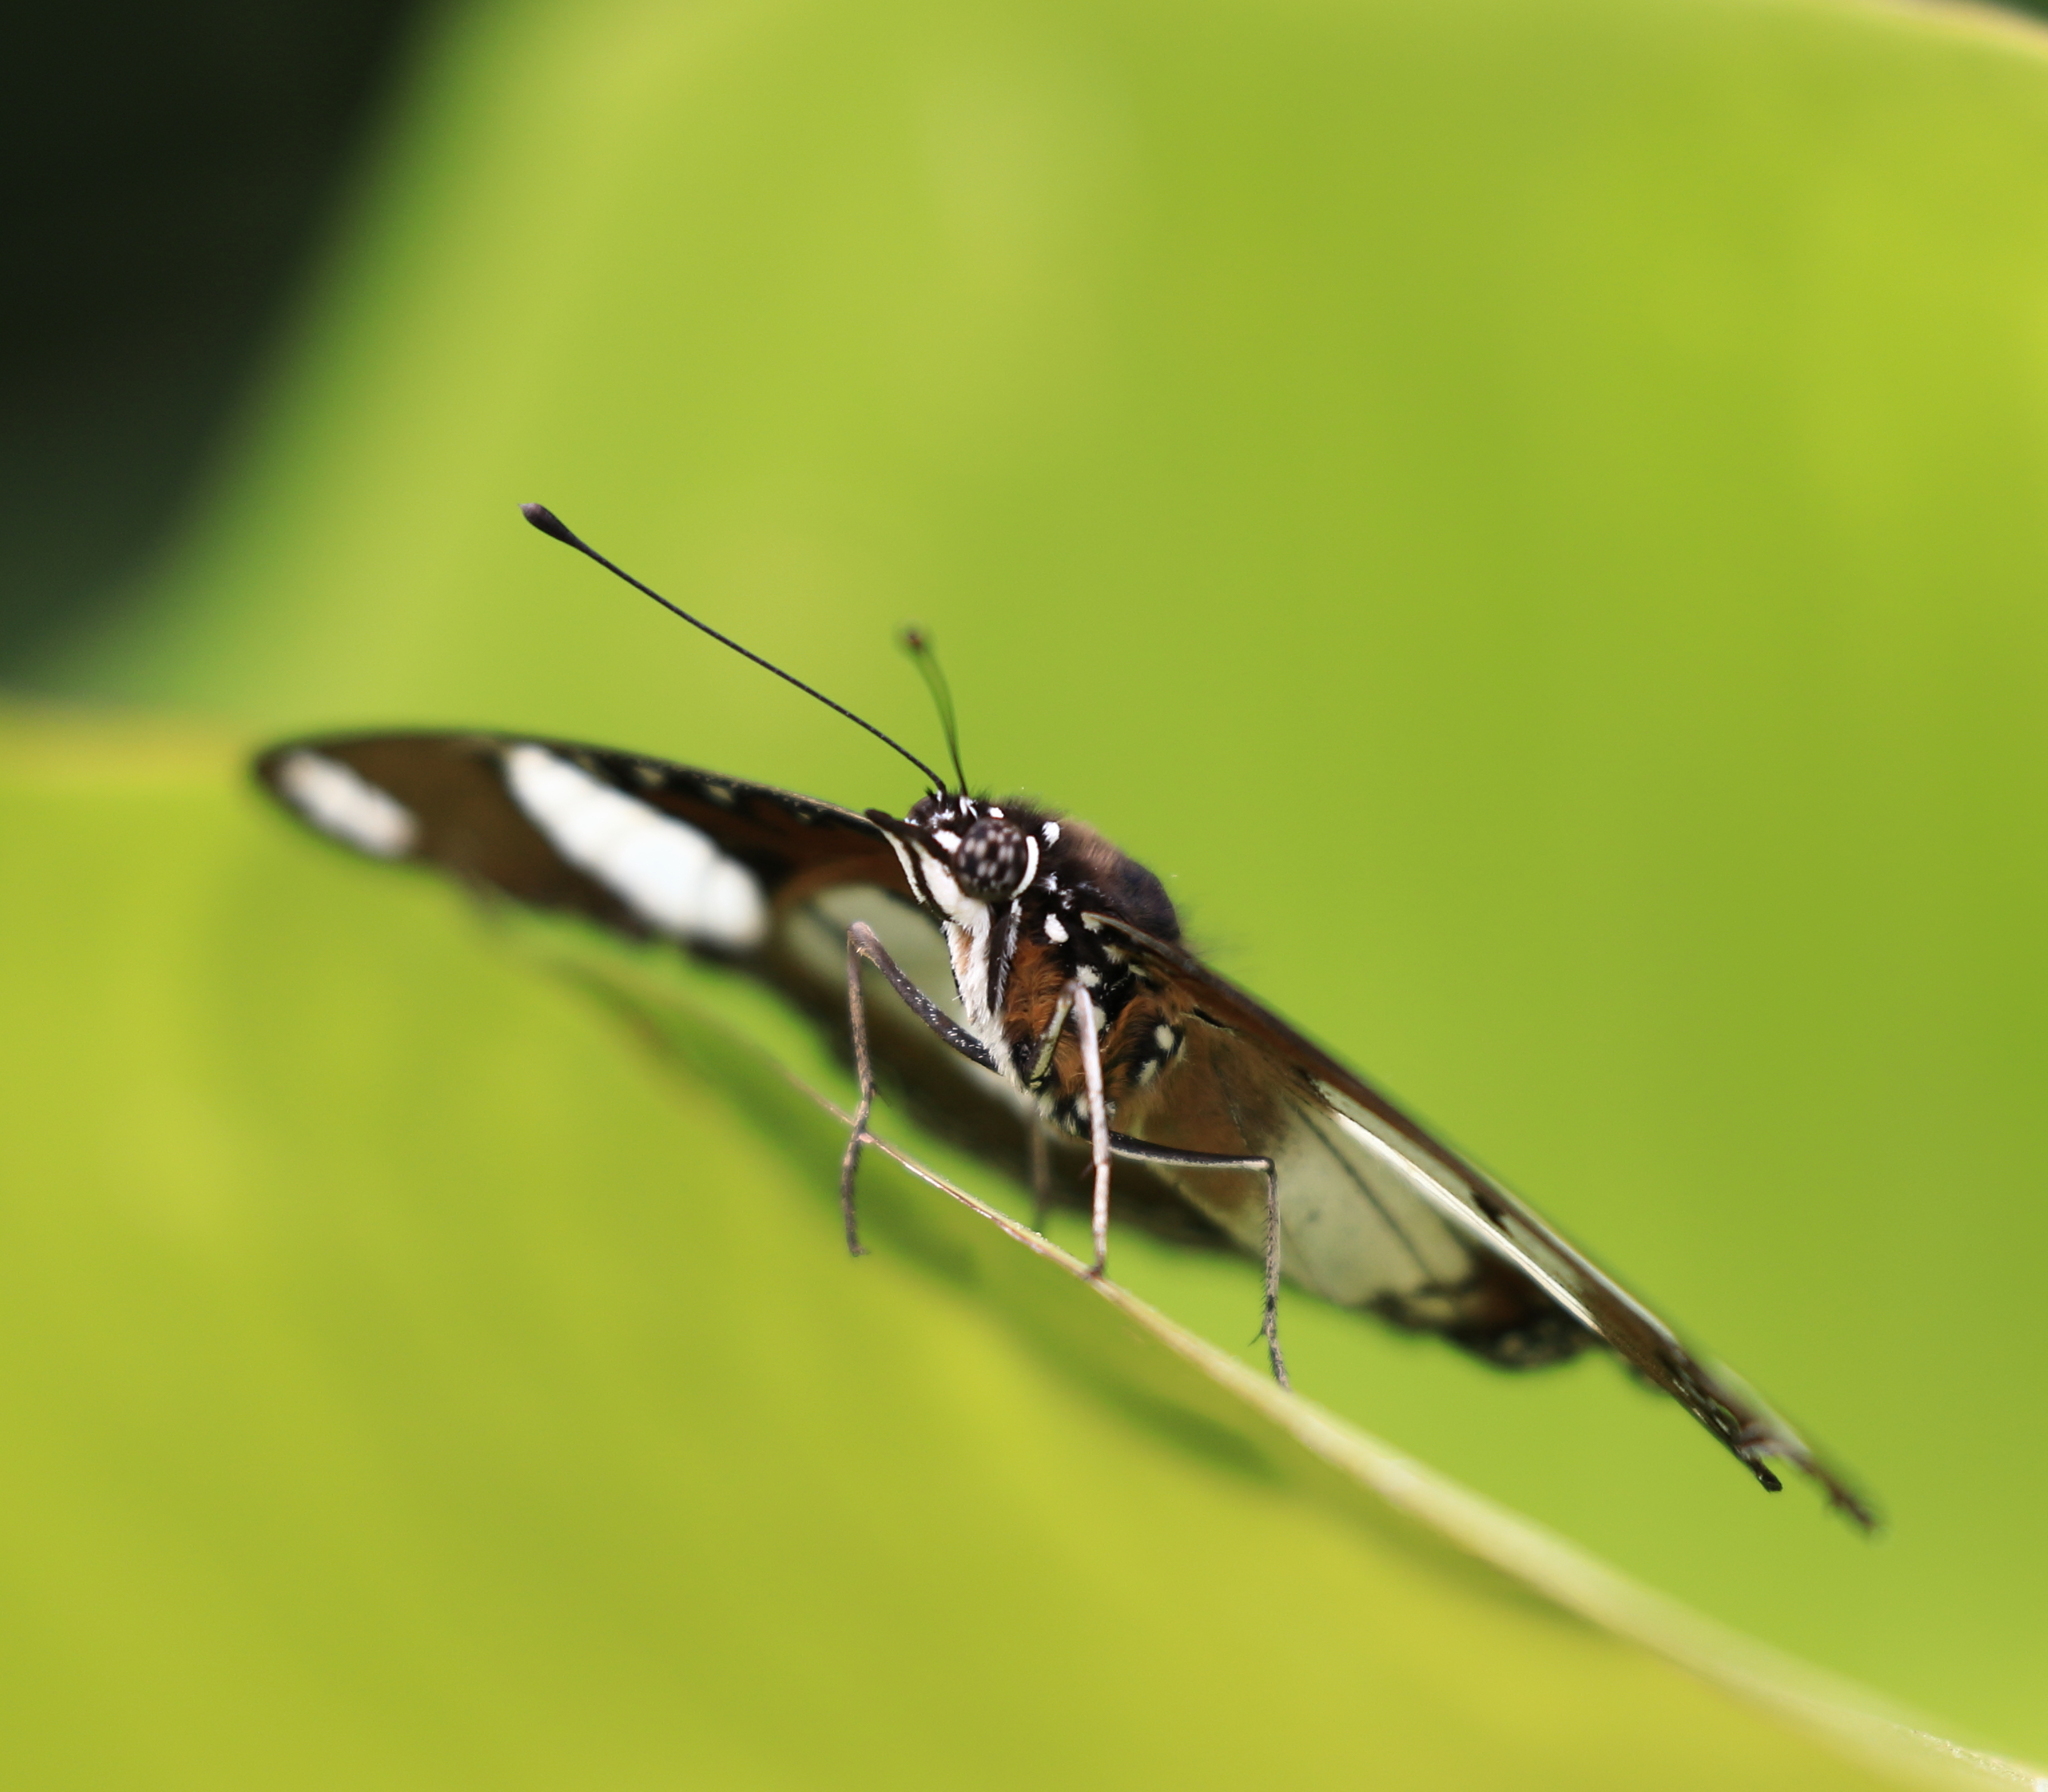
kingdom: Animalia
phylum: Arthropoda
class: Insecta
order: Lepidoptera
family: Nymphalidae
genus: Hypolimnas
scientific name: Hypolimnas misippus
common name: False plain tiger
